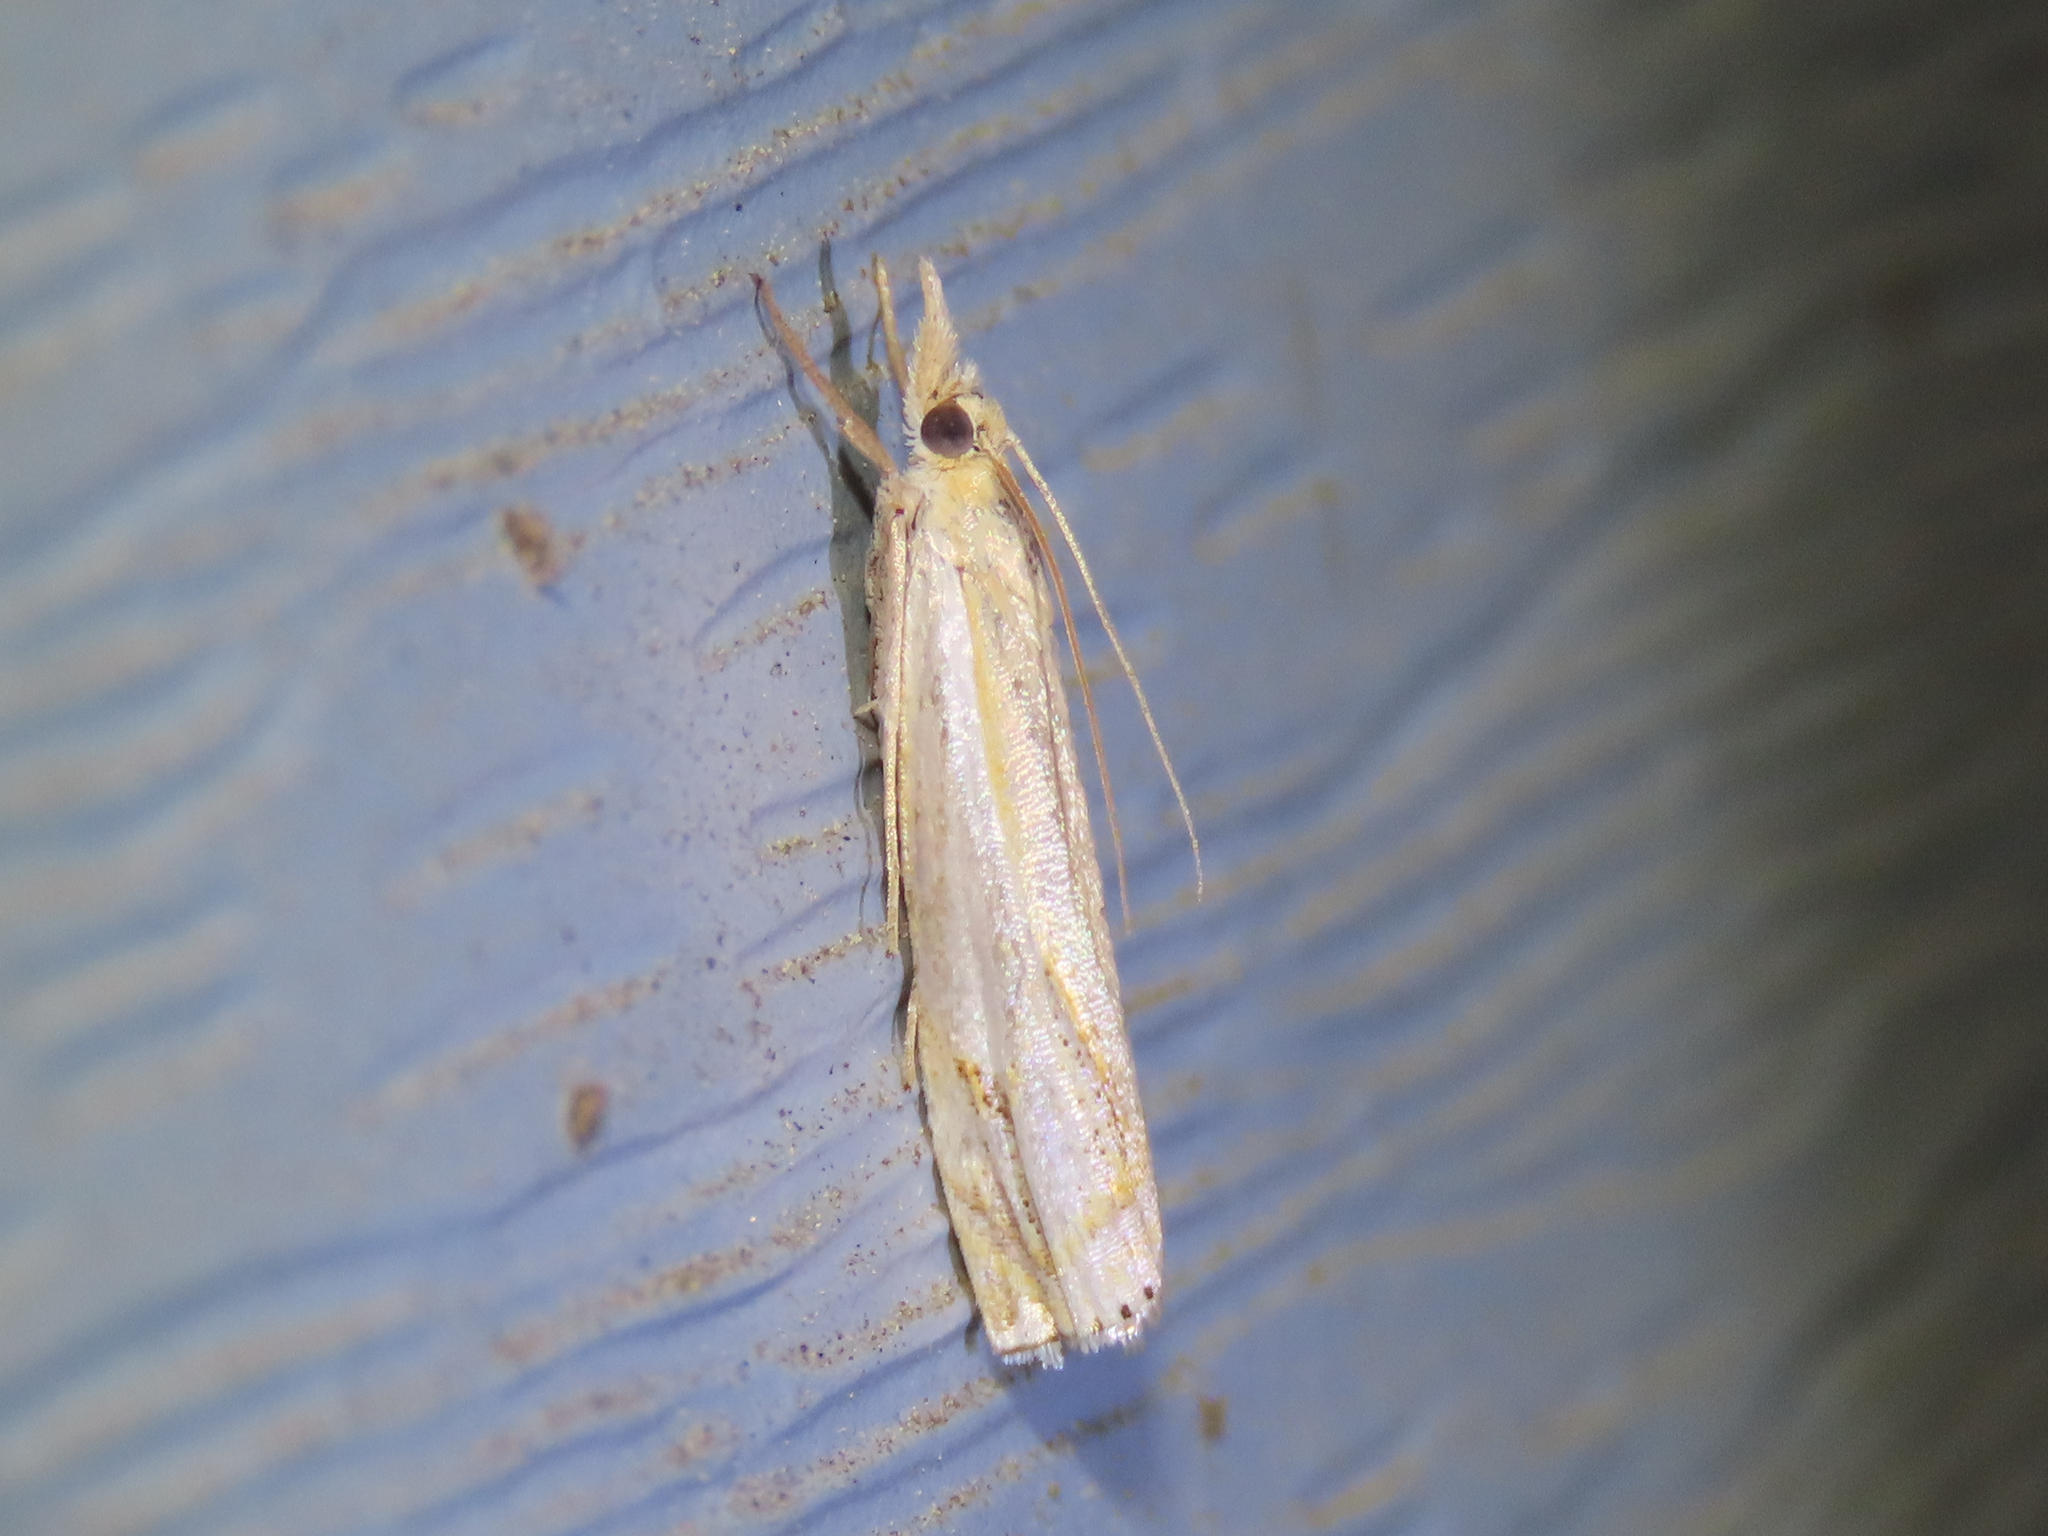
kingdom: Animalia
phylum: Arthropoda
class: Insecta
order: Lepidoptera
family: Crambidae
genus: Crambus
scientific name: Crambus agitatellus
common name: Double-banded grass-veneer
